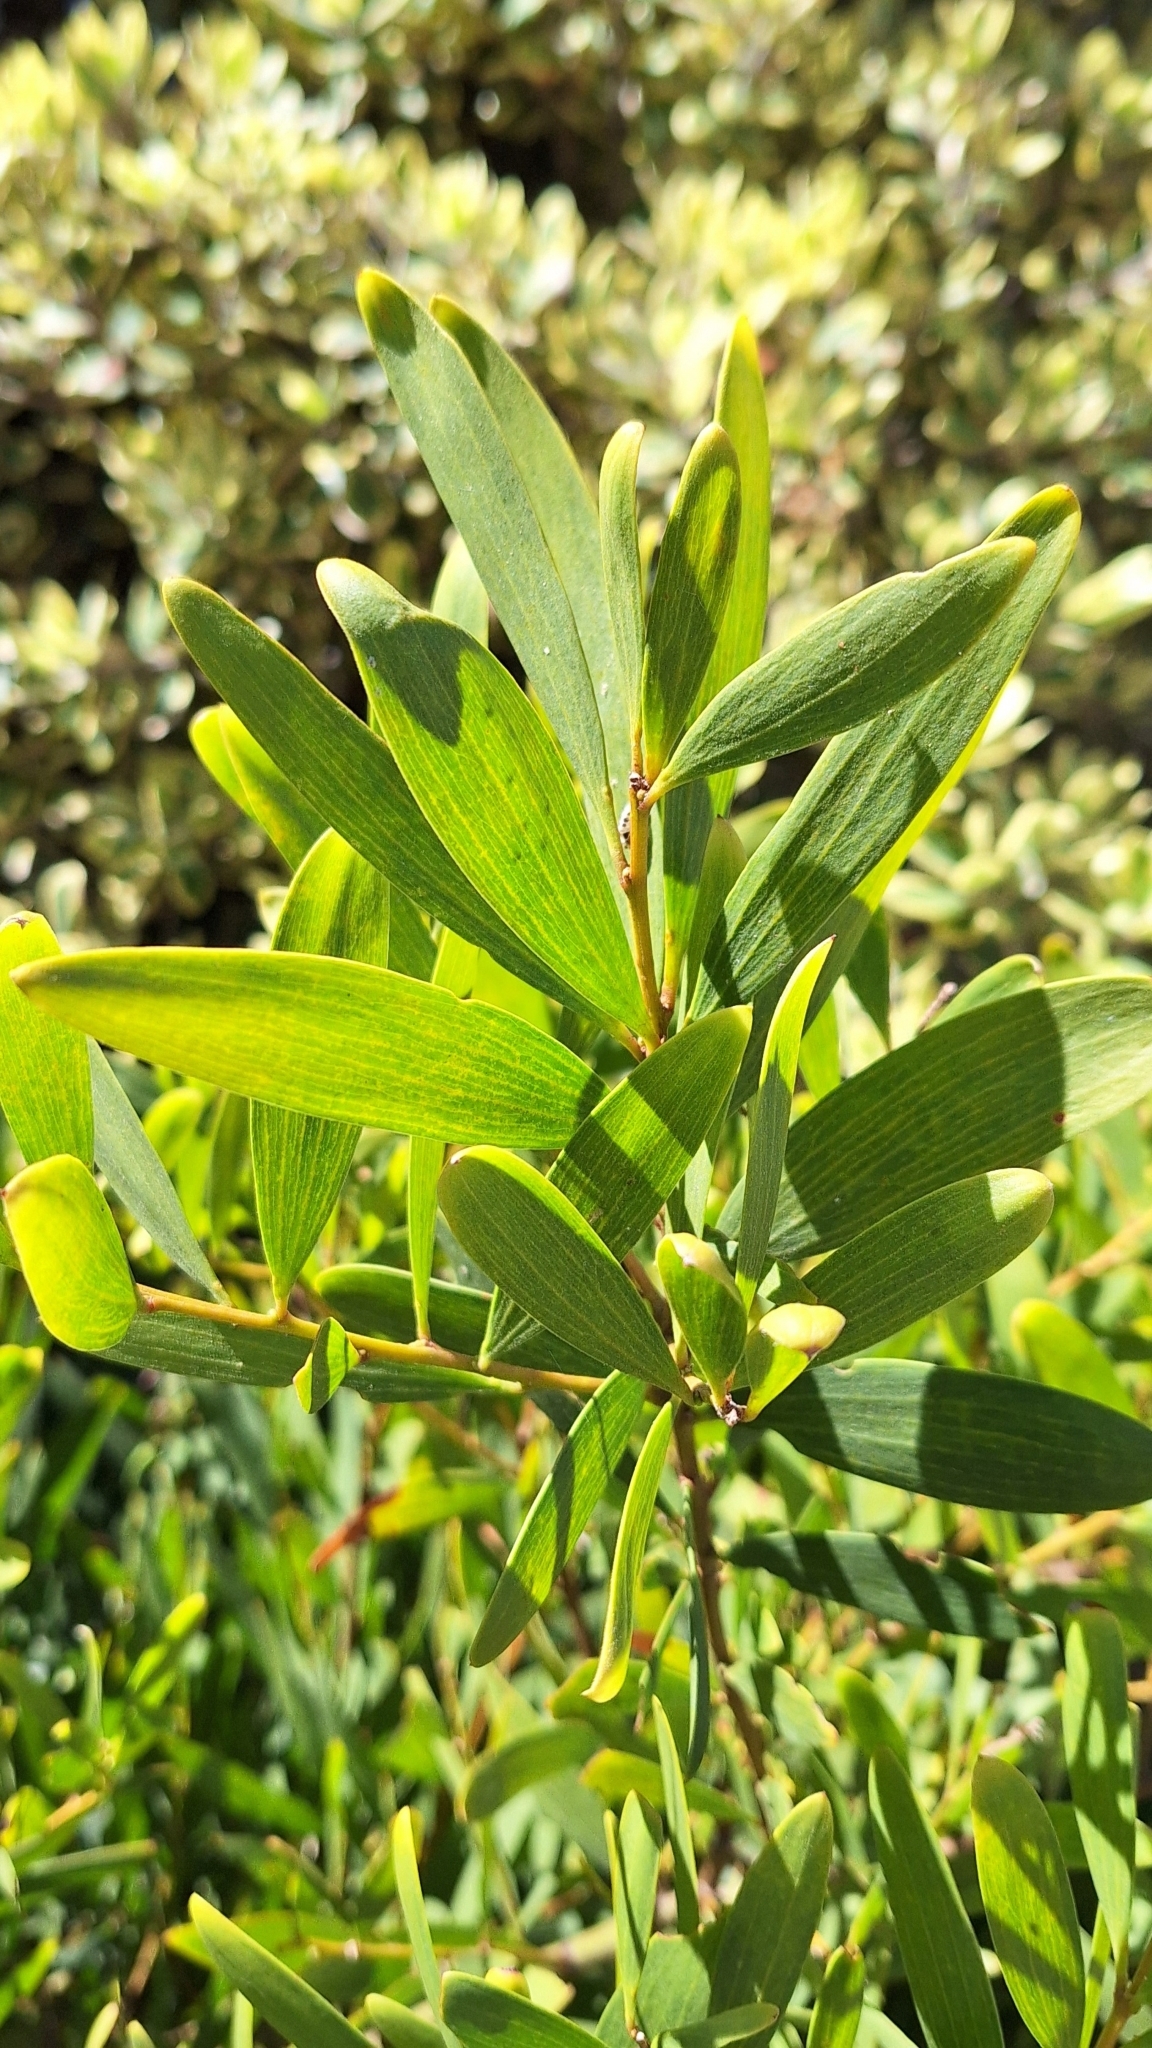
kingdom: Plantae
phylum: Tracheophyta
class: Magnoliopsida
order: Fabales
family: Fabaceae
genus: Acacia
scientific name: Acacia longifolia
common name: Sydney golden wattle
